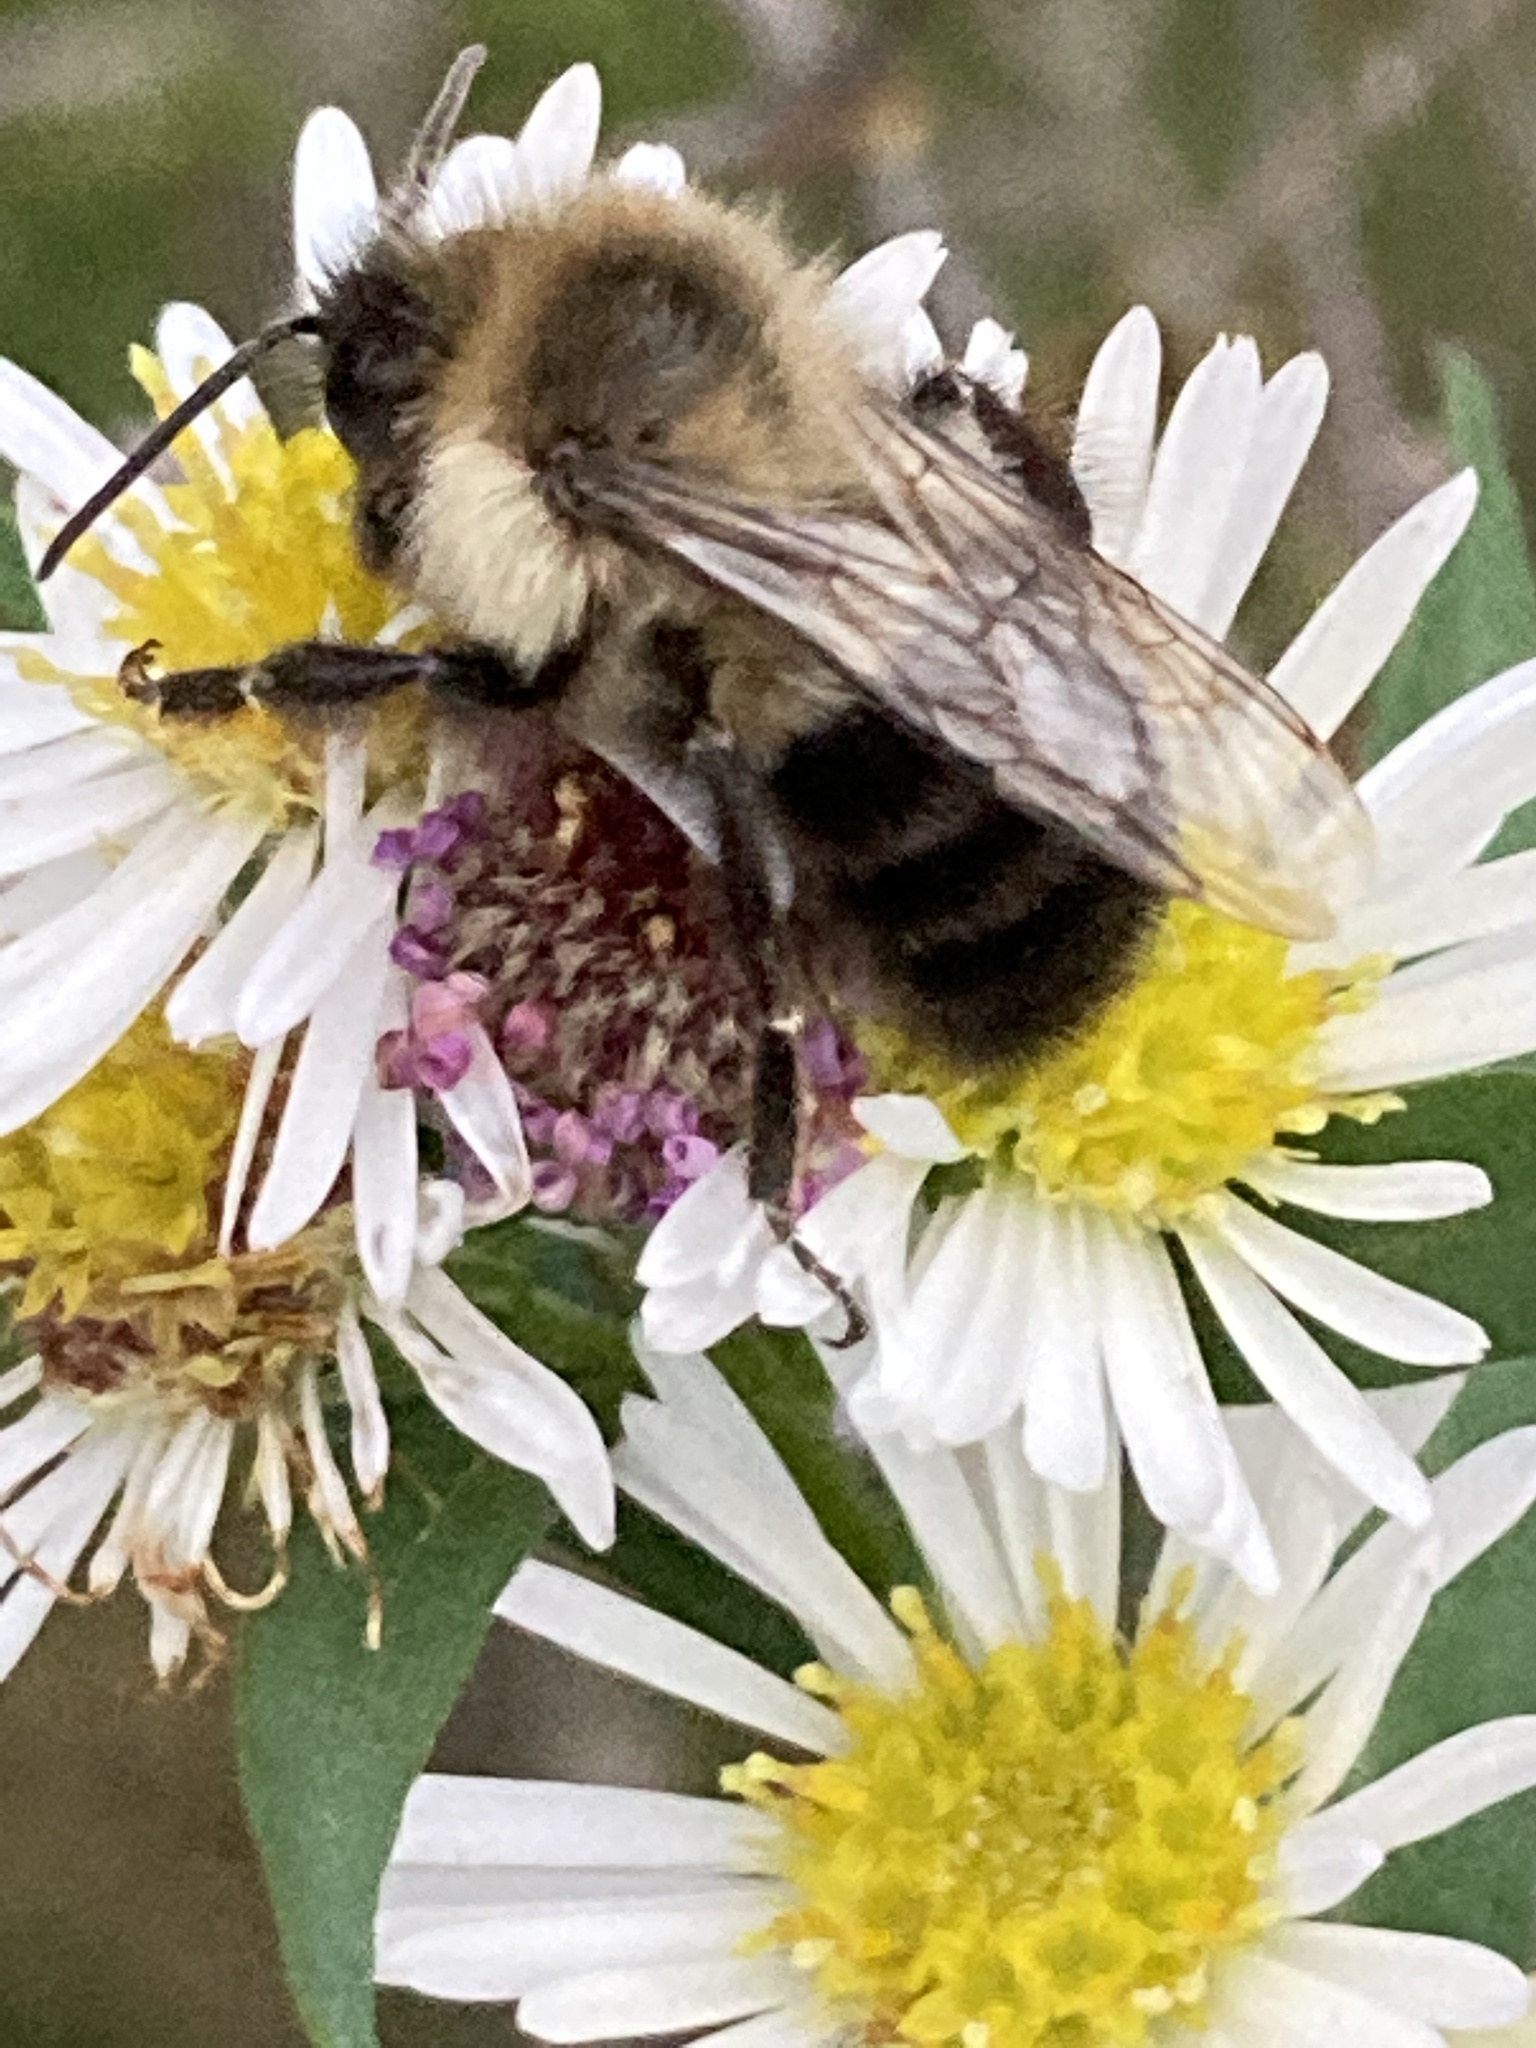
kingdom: Animalia
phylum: Arthropoda
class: Insecta
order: Hymenoptera
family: Apidae
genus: Bombus
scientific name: Bombus impatiens
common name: Common eastern bumble bee
